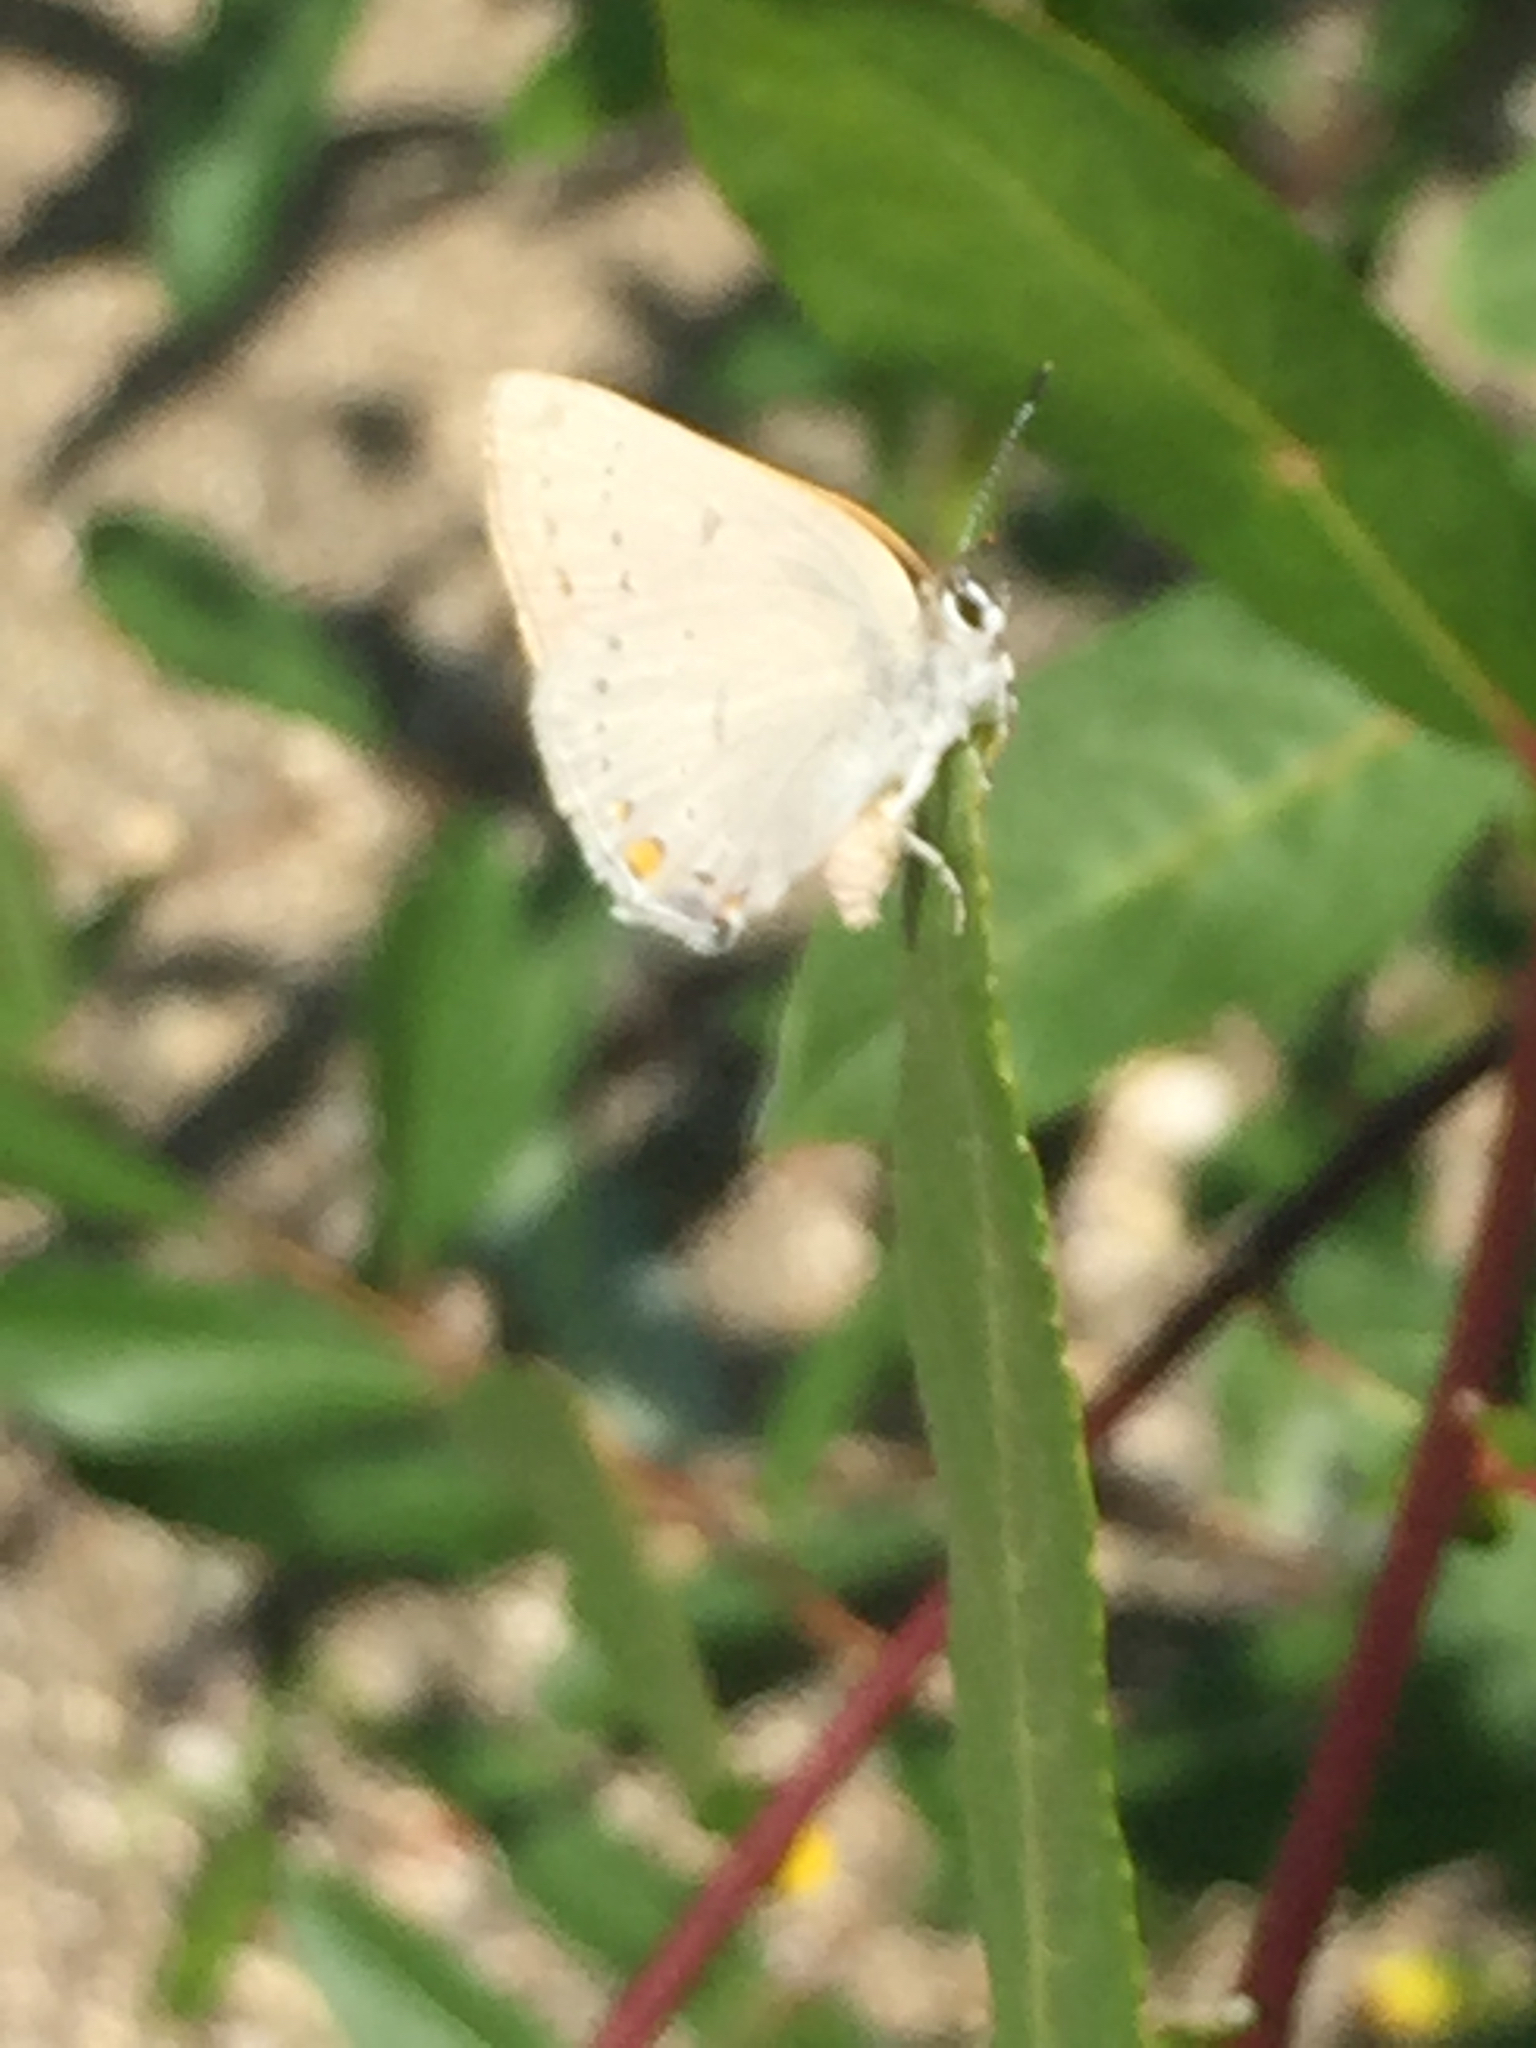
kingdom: Animalia
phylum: Arthropoda
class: Insecta
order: Lepidoptera
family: Lycaenidae
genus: Strymon
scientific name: Strymon sylvinus
